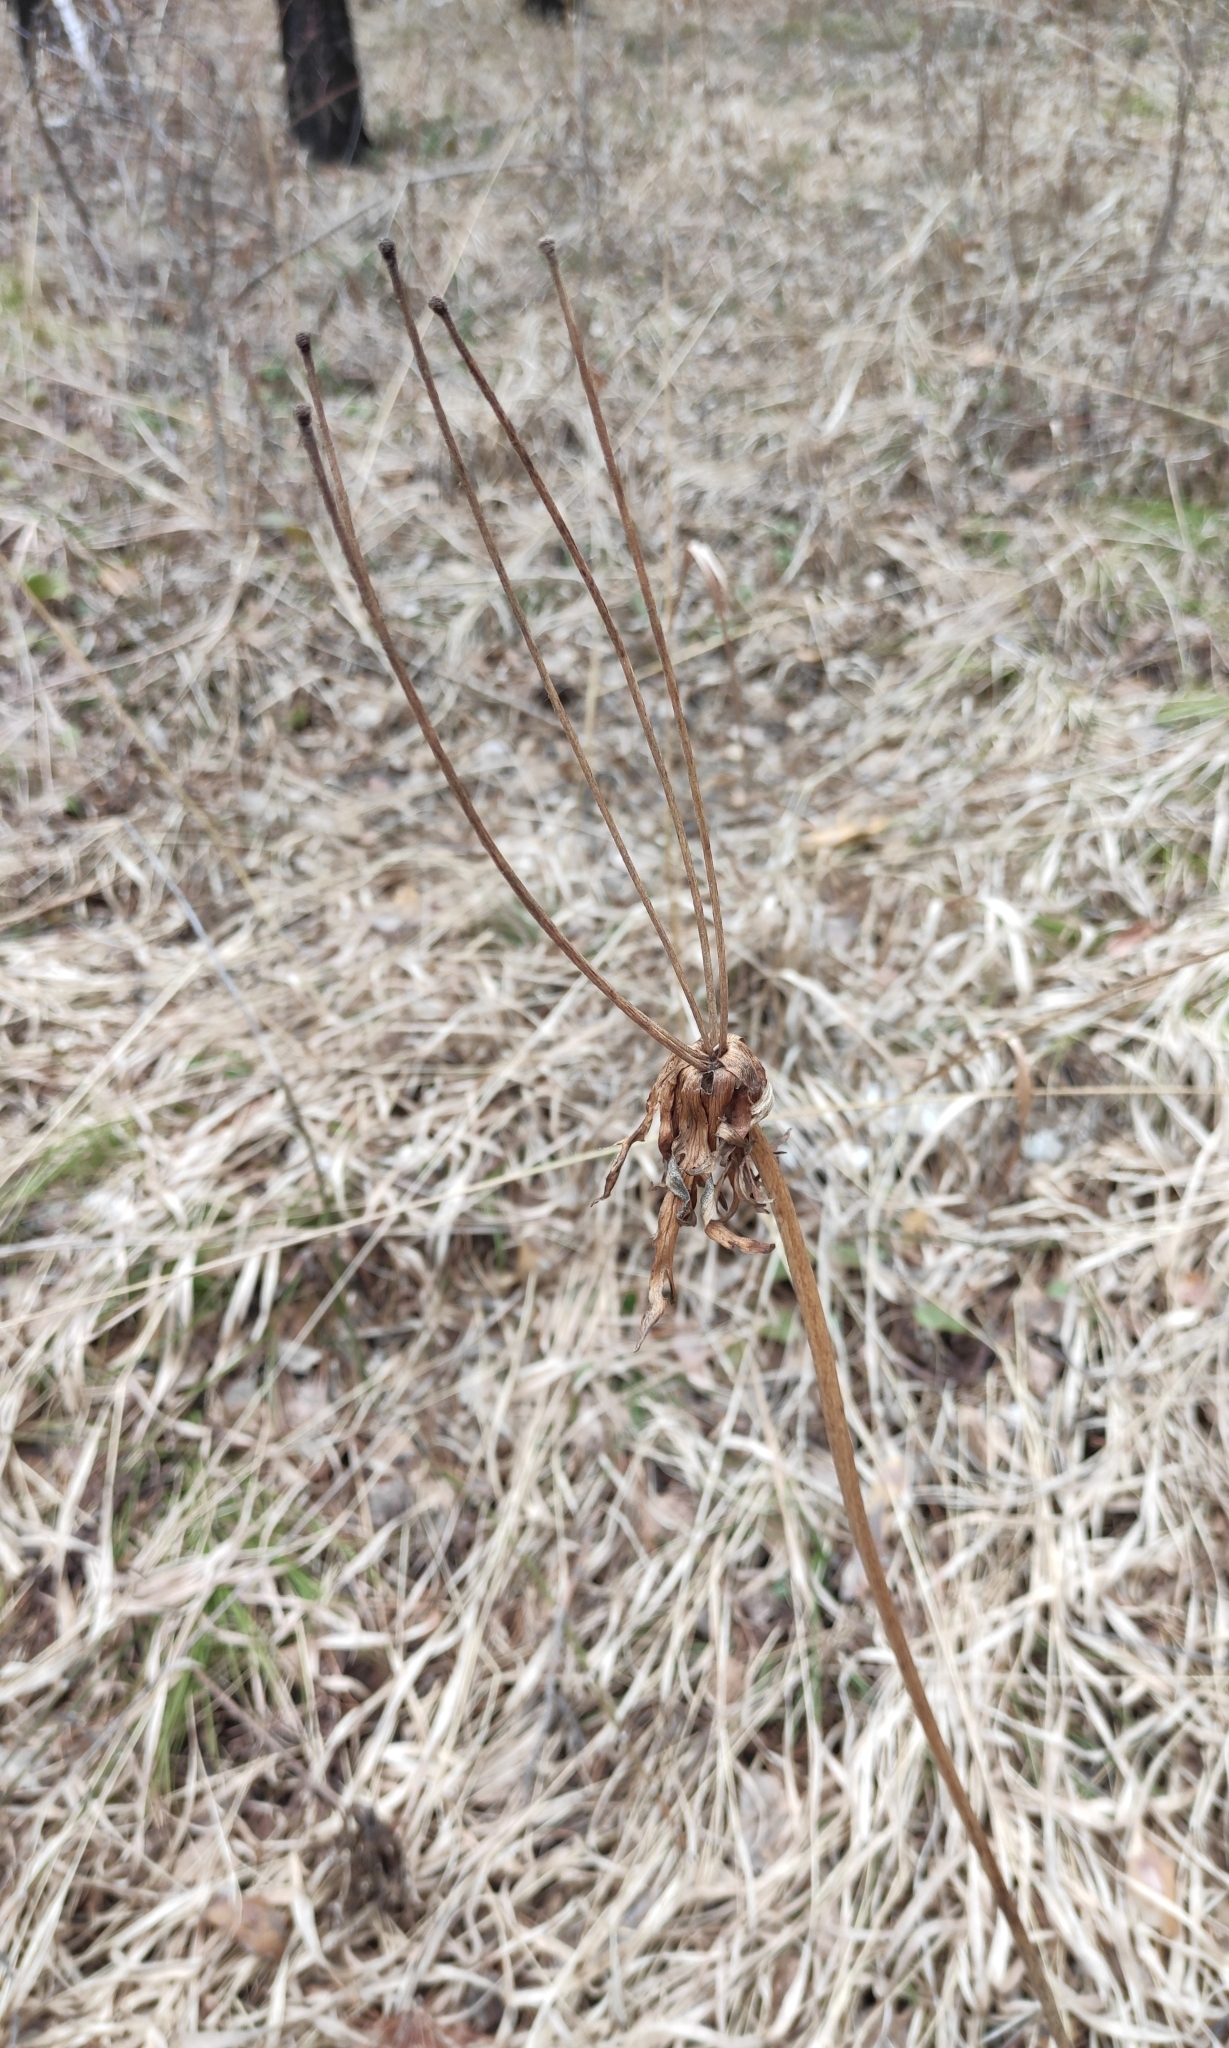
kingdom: Plantae
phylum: Tracheophyta
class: Magnoliopsida
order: Ranunculales
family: Ranunculaceae
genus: Anemonastrum
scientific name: Anemonastrum narcissiflorum
